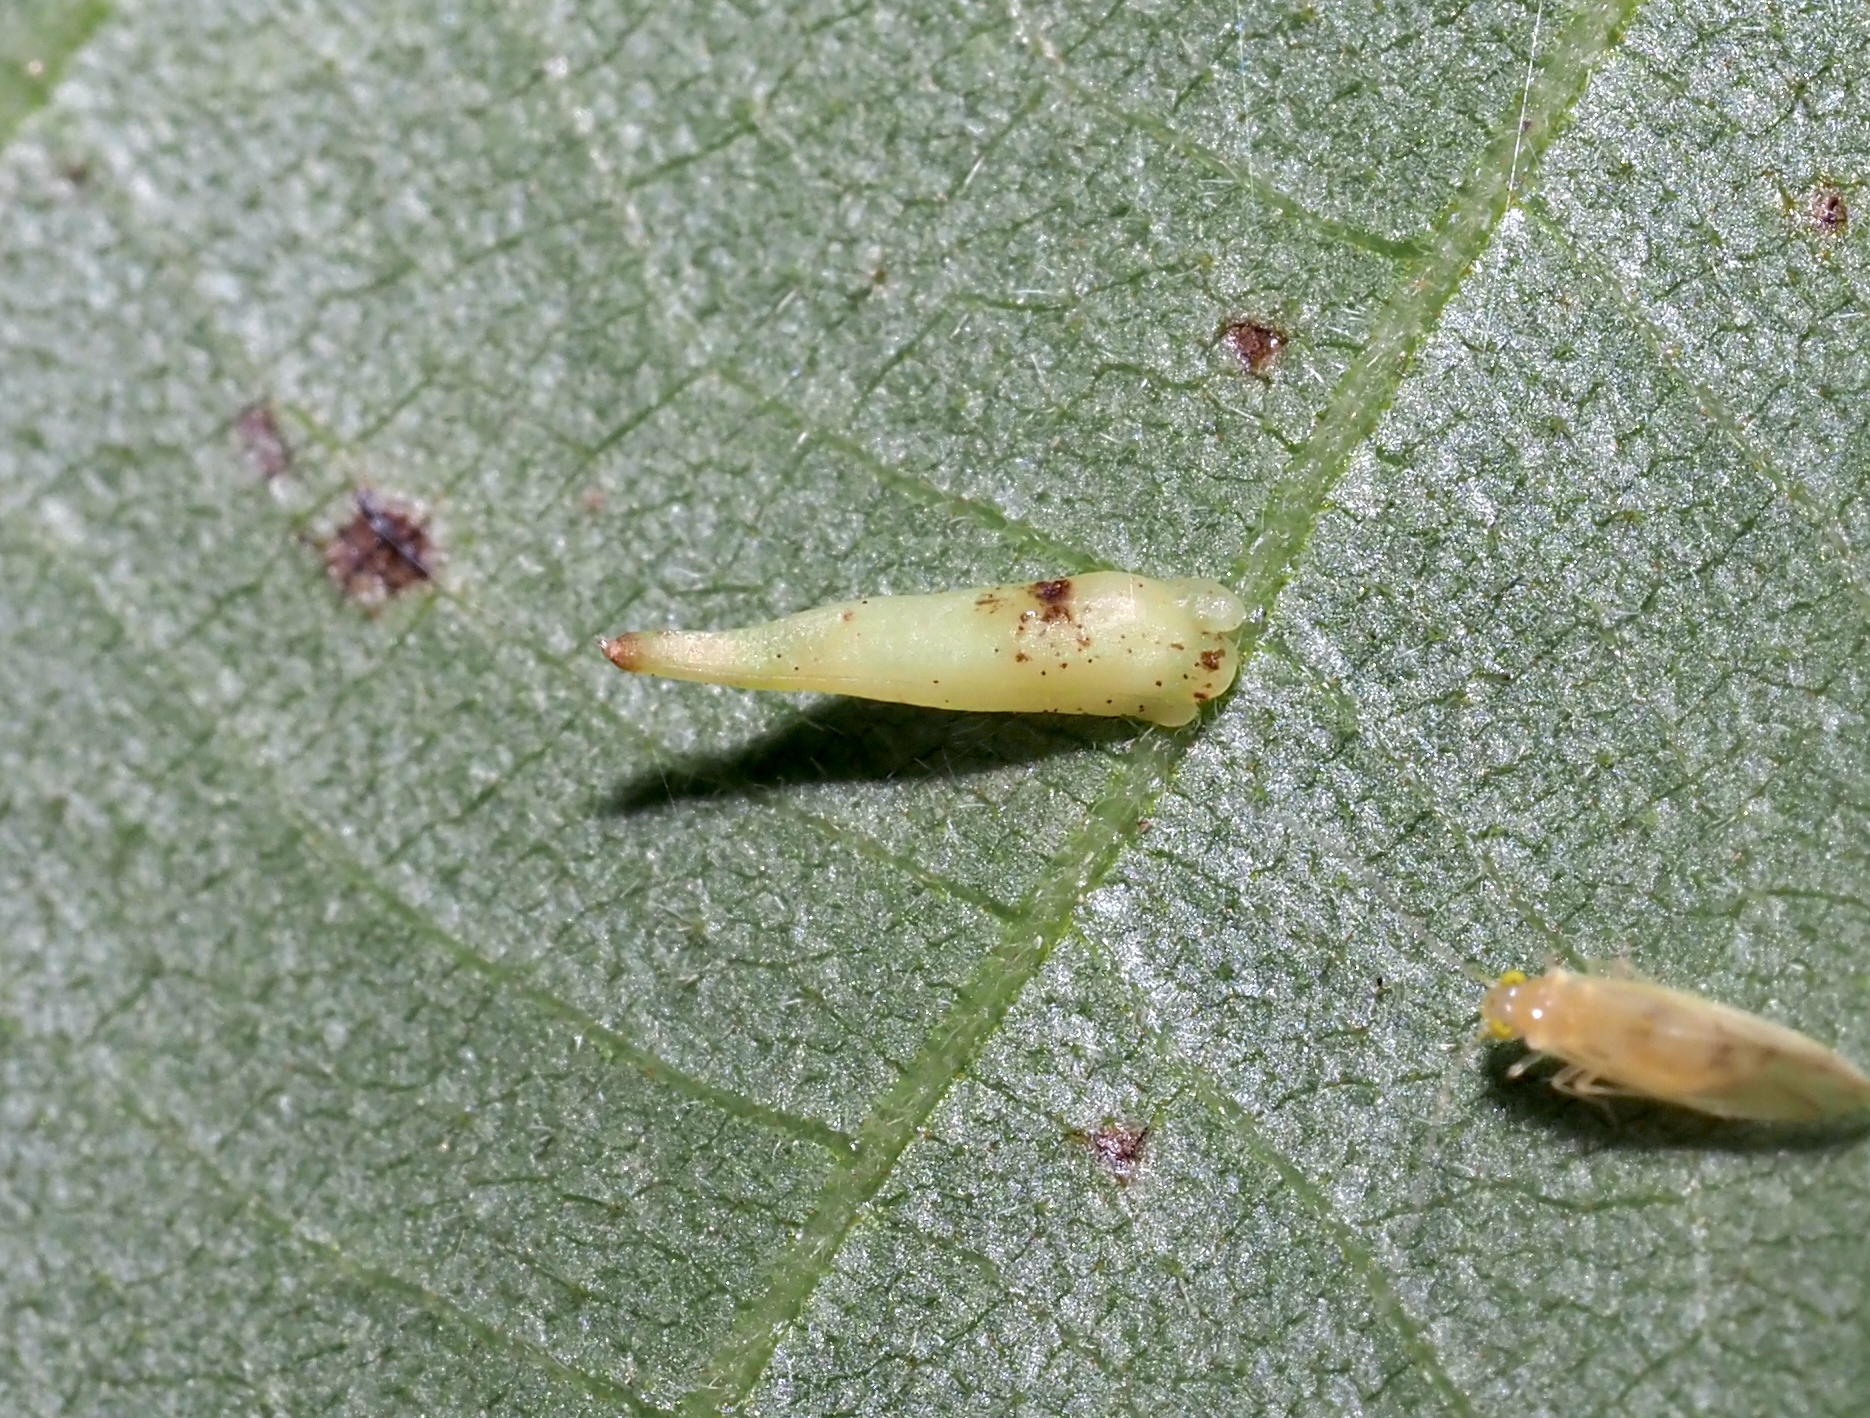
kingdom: Animalia
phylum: Arthropoda
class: Insecta
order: Diptera
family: Cecidomyiidae
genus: Caryomyia
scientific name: Caryomyia
